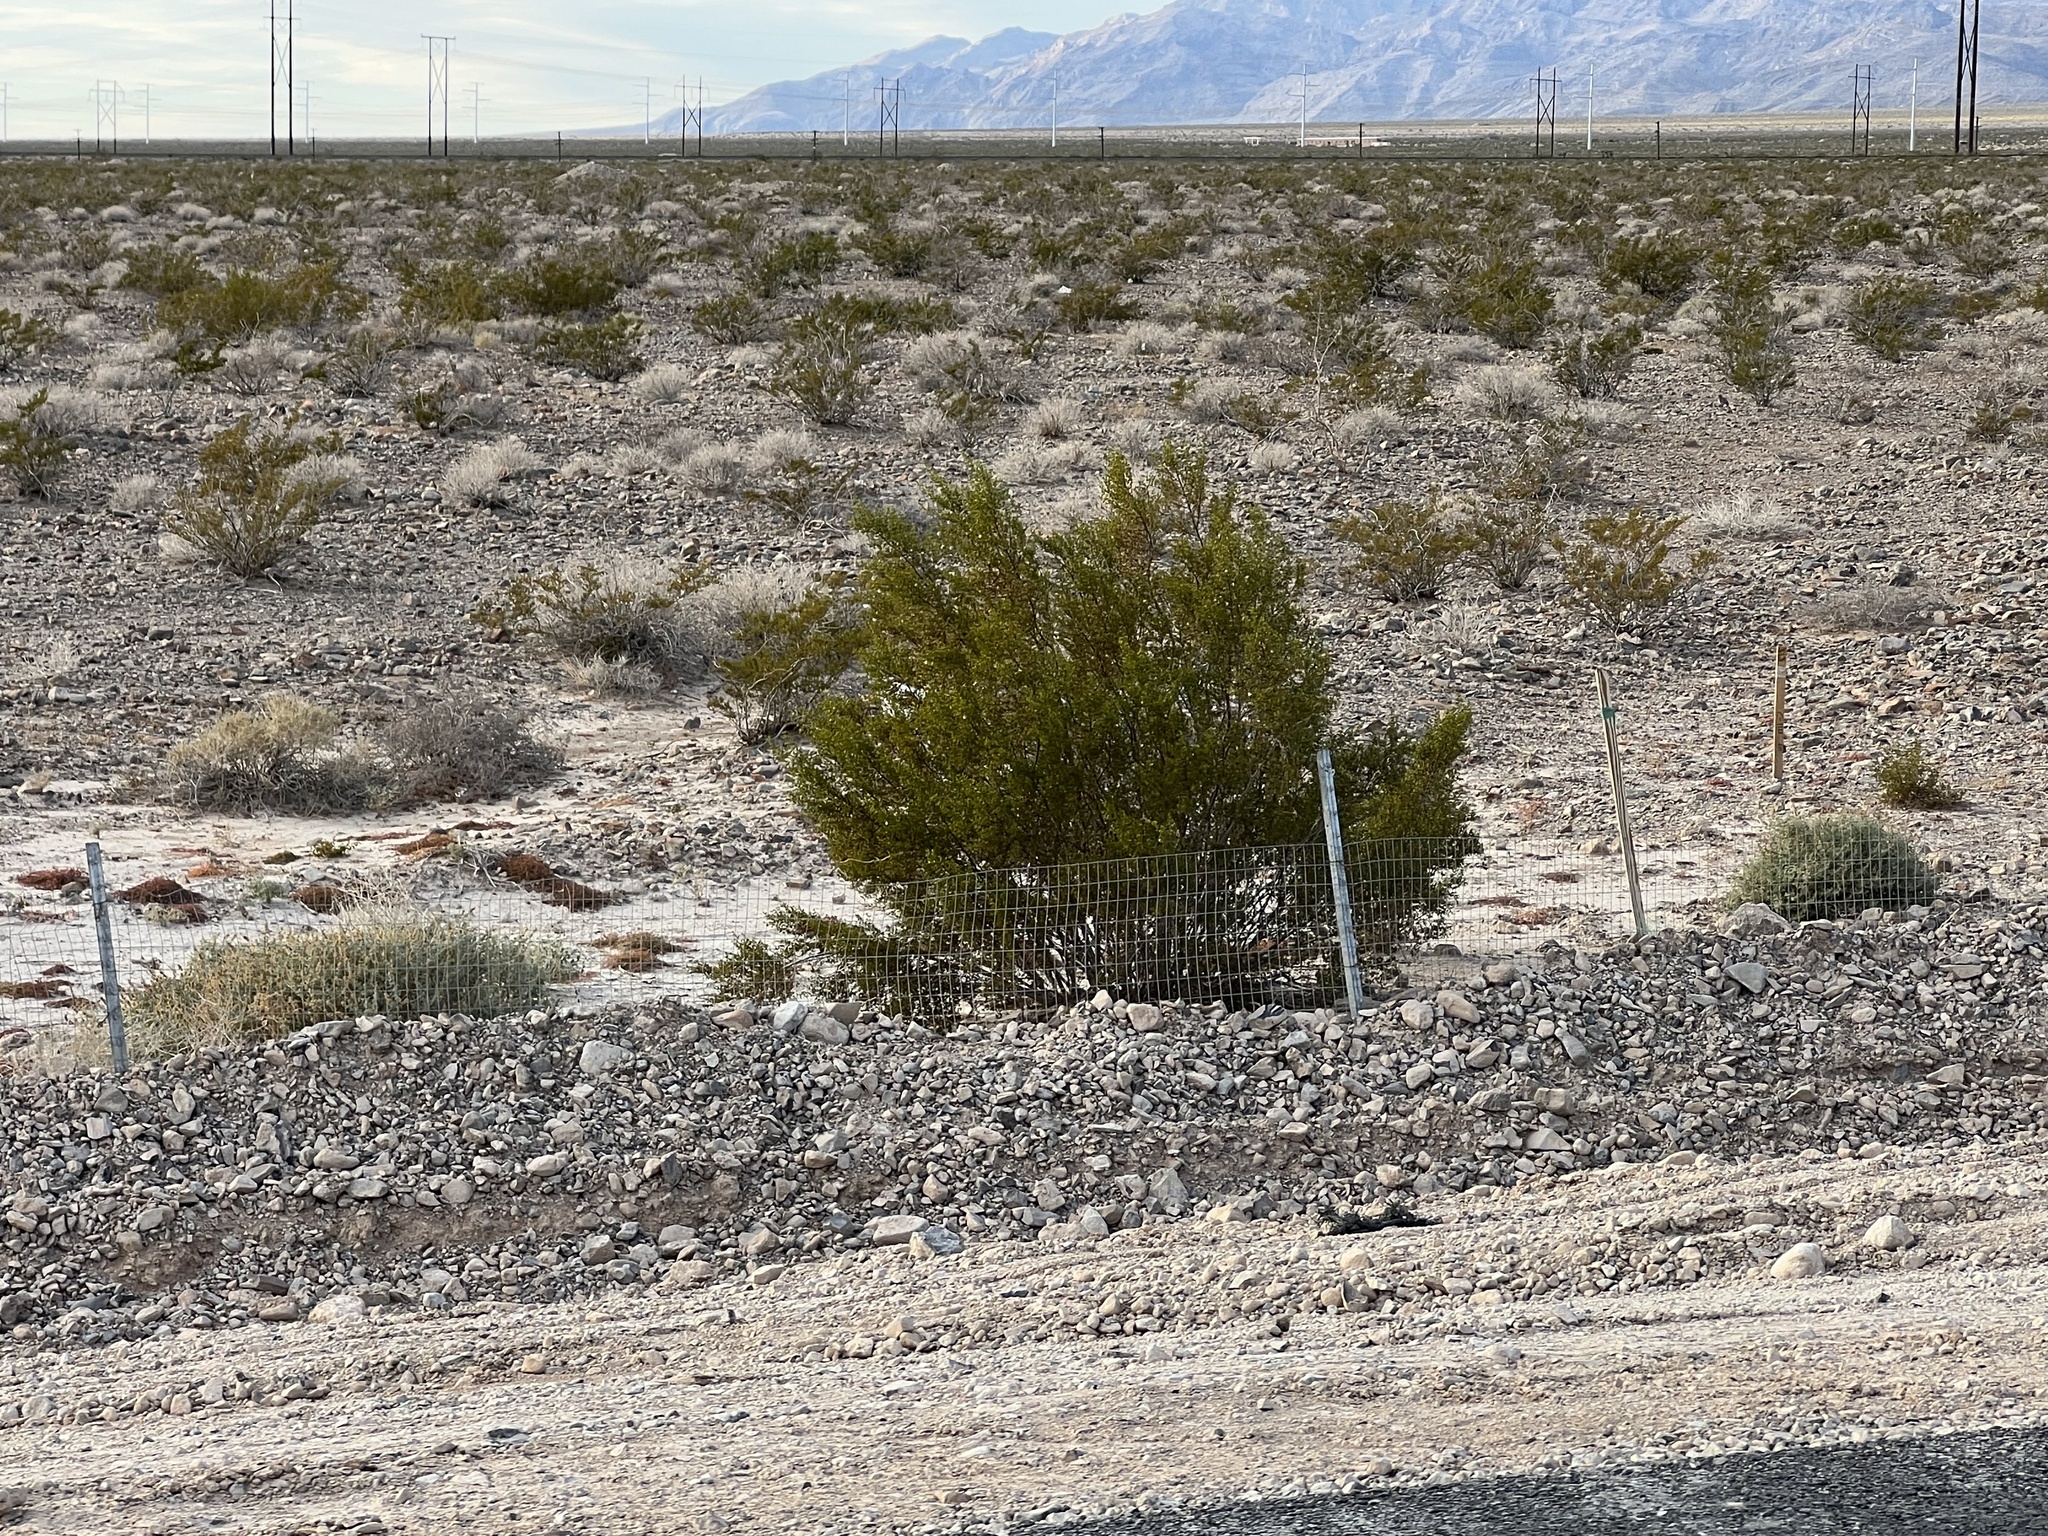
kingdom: Plantae
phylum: Tracheophyta
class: Magnoliopsida
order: Zygophyllales
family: Zygophyllaceae
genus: Larrea
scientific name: Larrea tridentata
